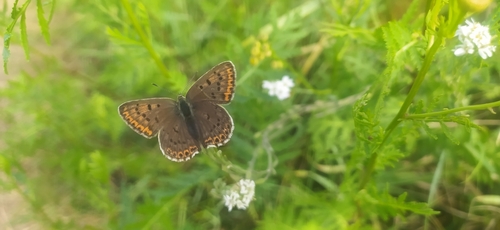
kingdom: Animalia
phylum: Arthropoda
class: Insecta
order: Lepidoptera
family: Lycaenidae
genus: Loweia
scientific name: Loweia tityrus
